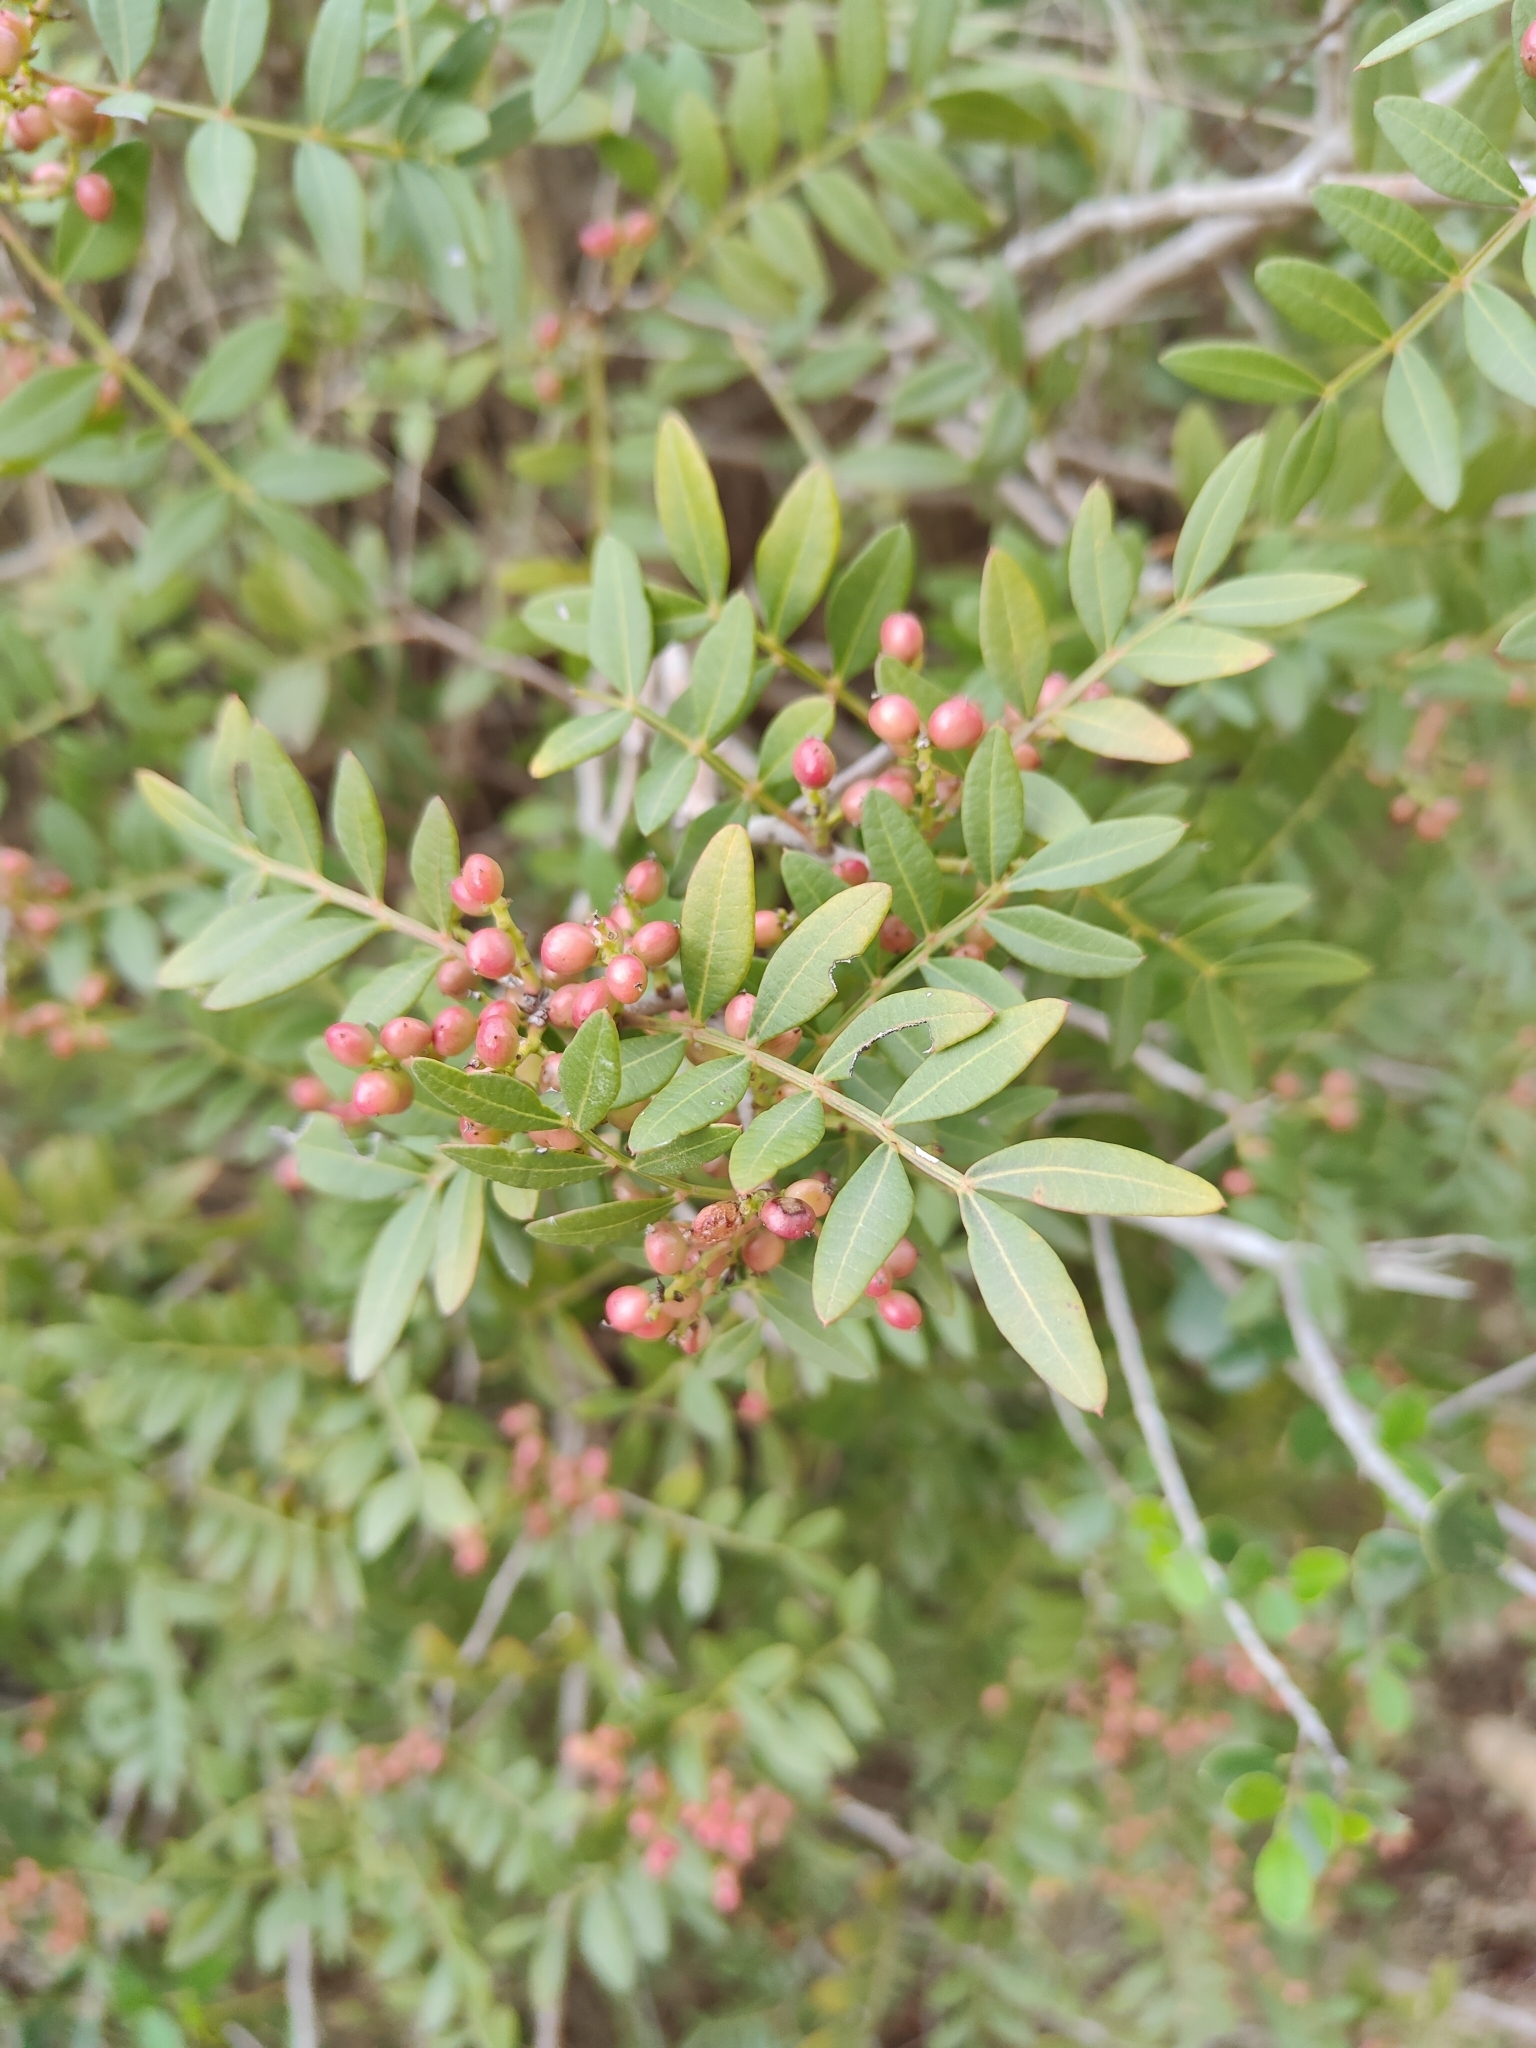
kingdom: Plantae
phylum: Tracheophyta
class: Magnoliopsida
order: Sapindales
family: Anacardiaceae
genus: Pistacia
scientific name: Pistacia lentiscus
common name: Lentisk
